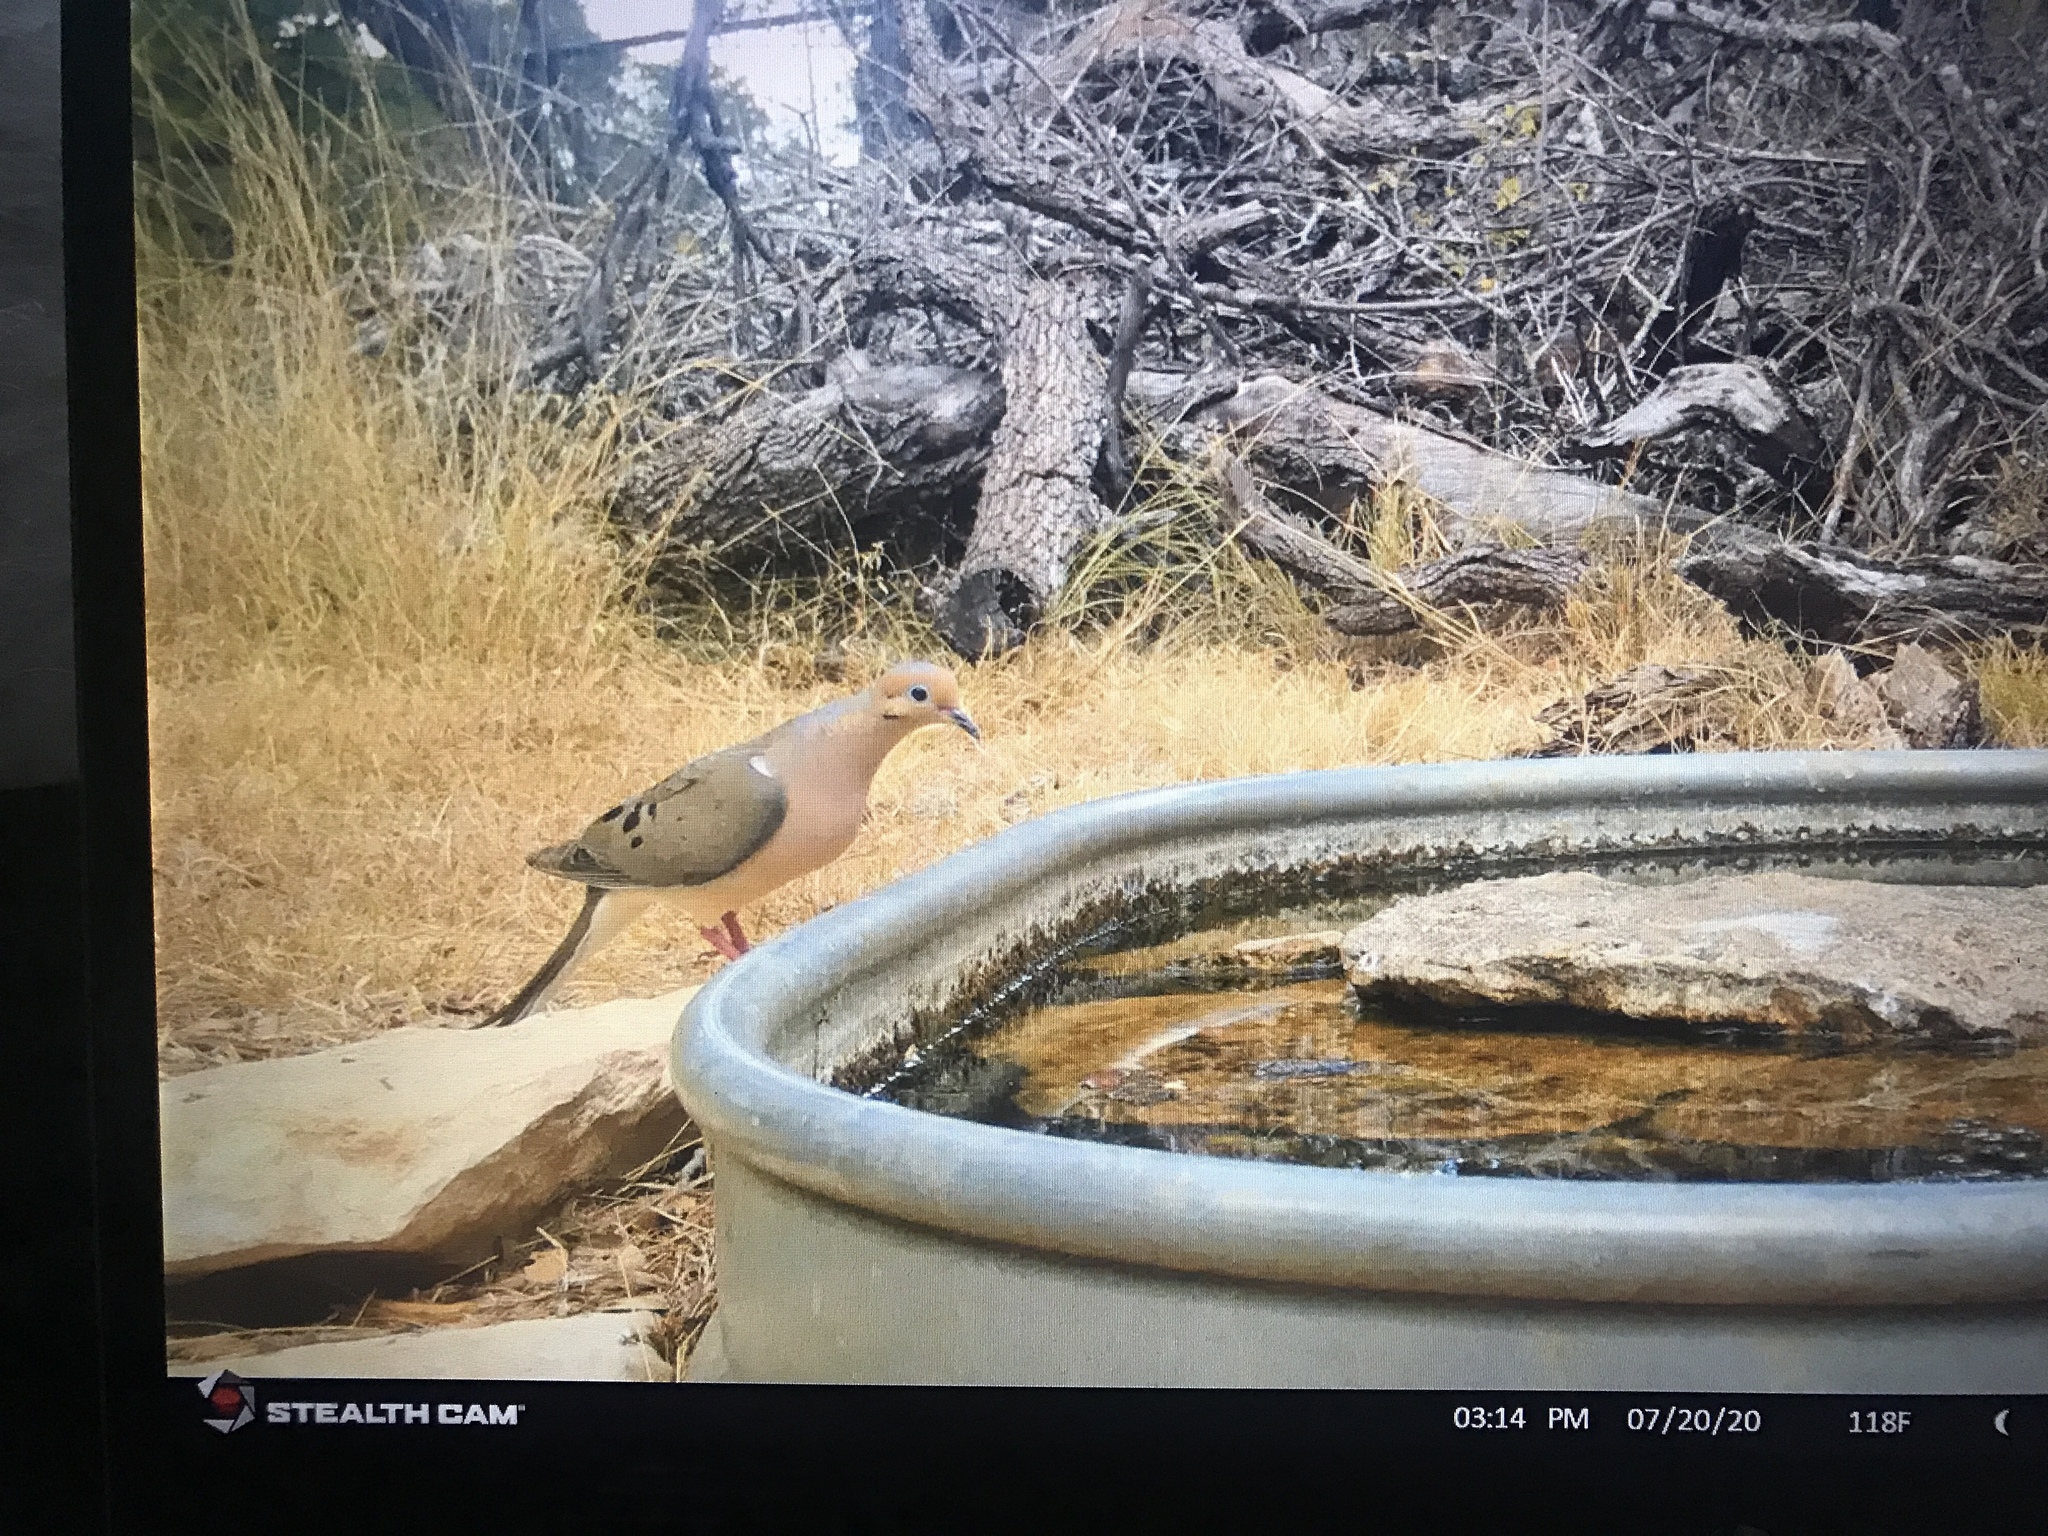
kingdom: Animalia
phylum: Chordata
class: Aves
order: Columbiformes
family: Columbidae
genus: Zenaida
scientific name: Zenaida macroura
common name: Mourning dove
